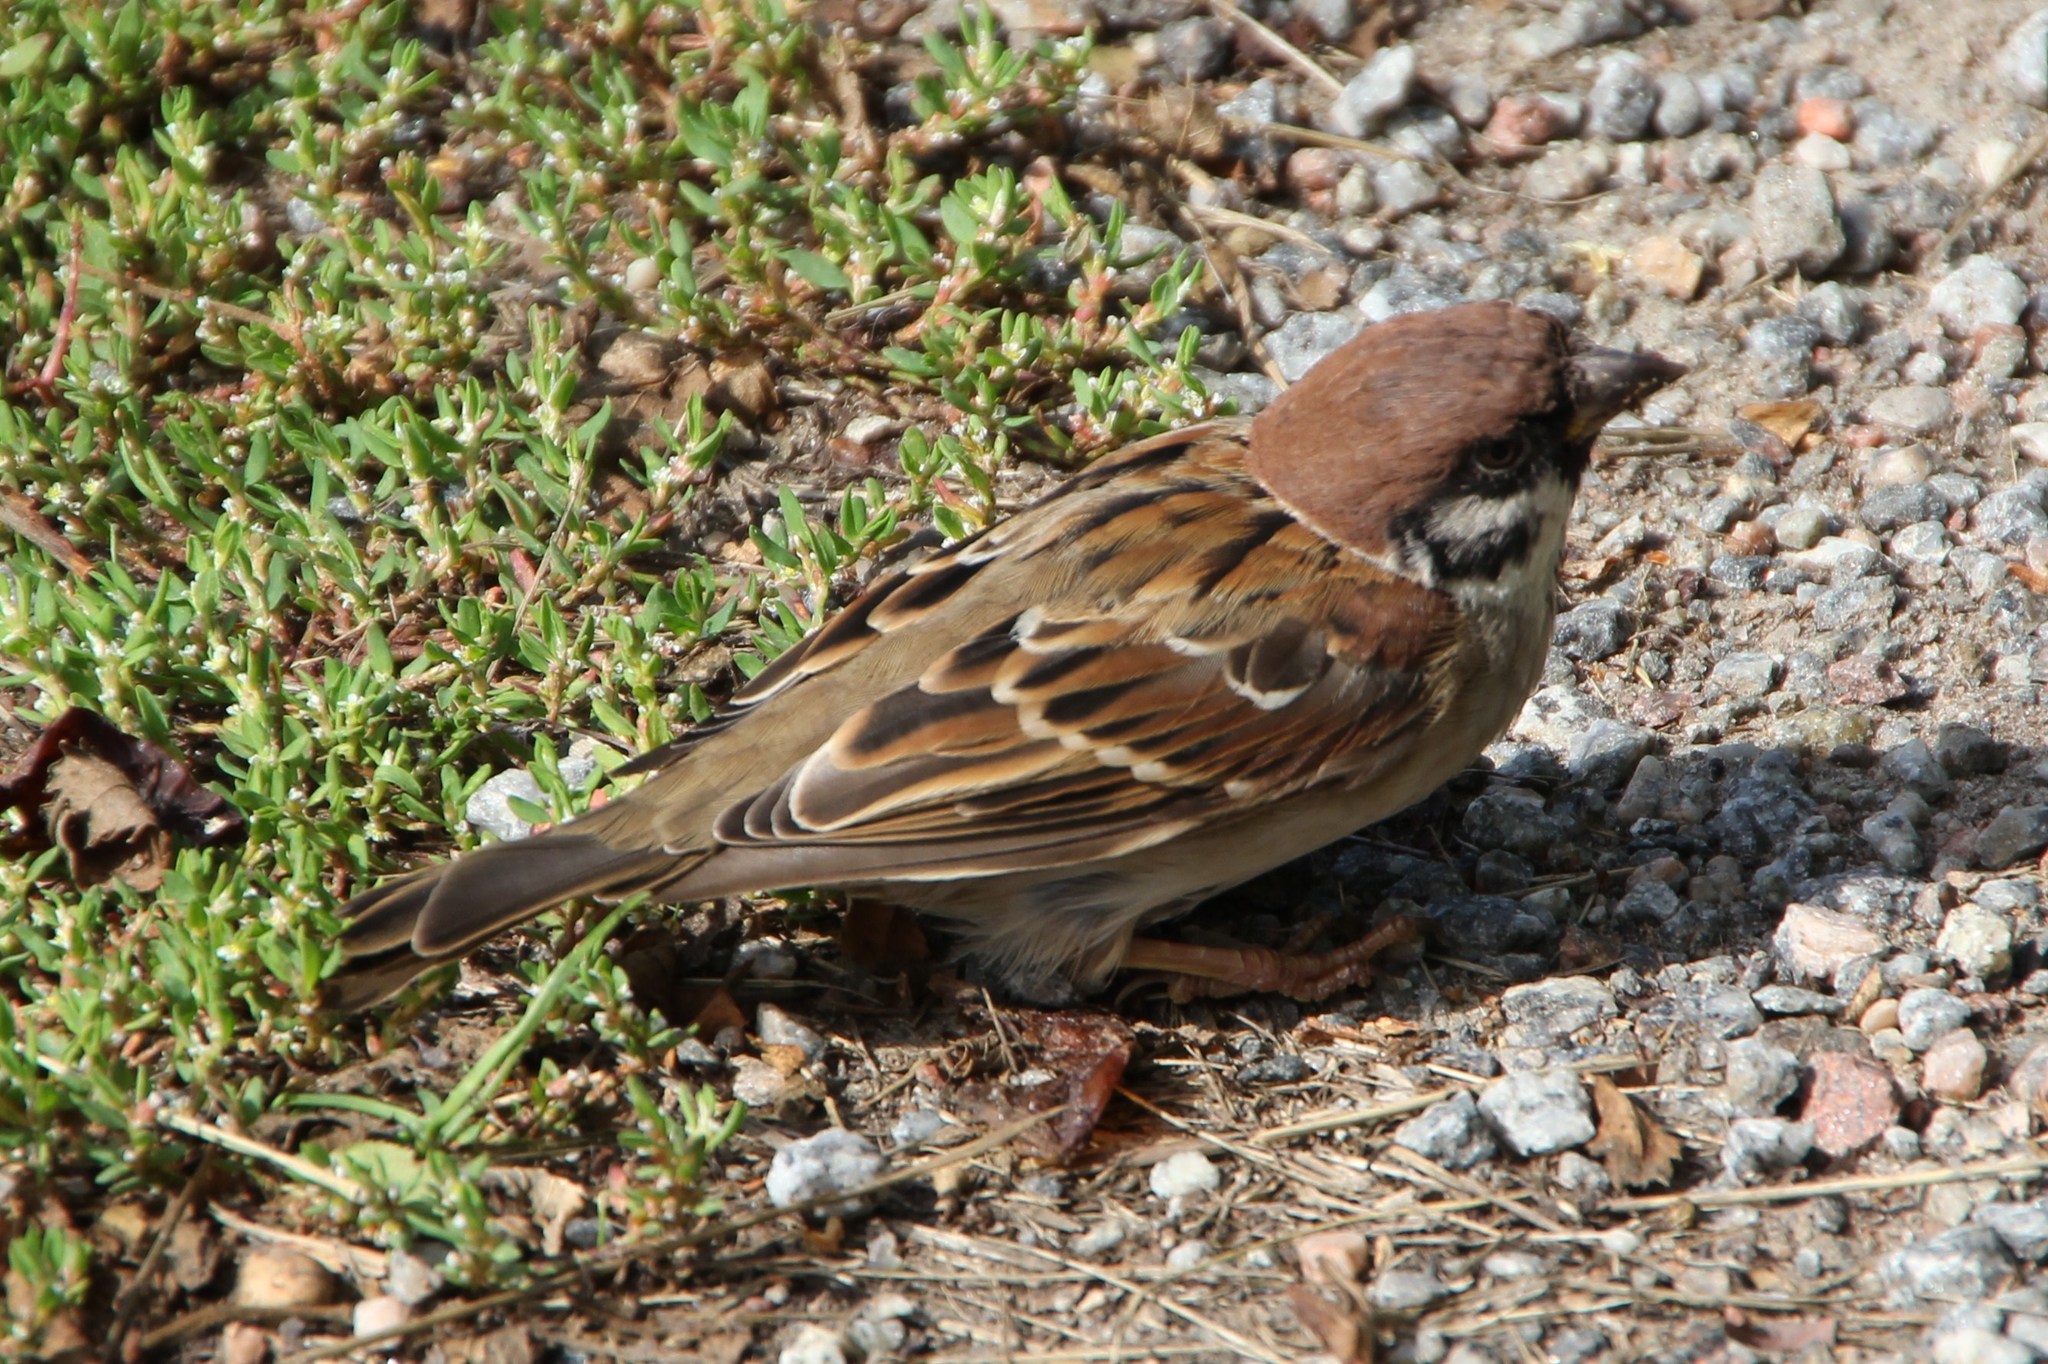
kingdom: Animalia
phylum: Chordata
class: Aves
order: Passeriformes
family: Passeridae
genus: Passer
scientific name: Passer montanus
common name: Eurasian tree sparrow
